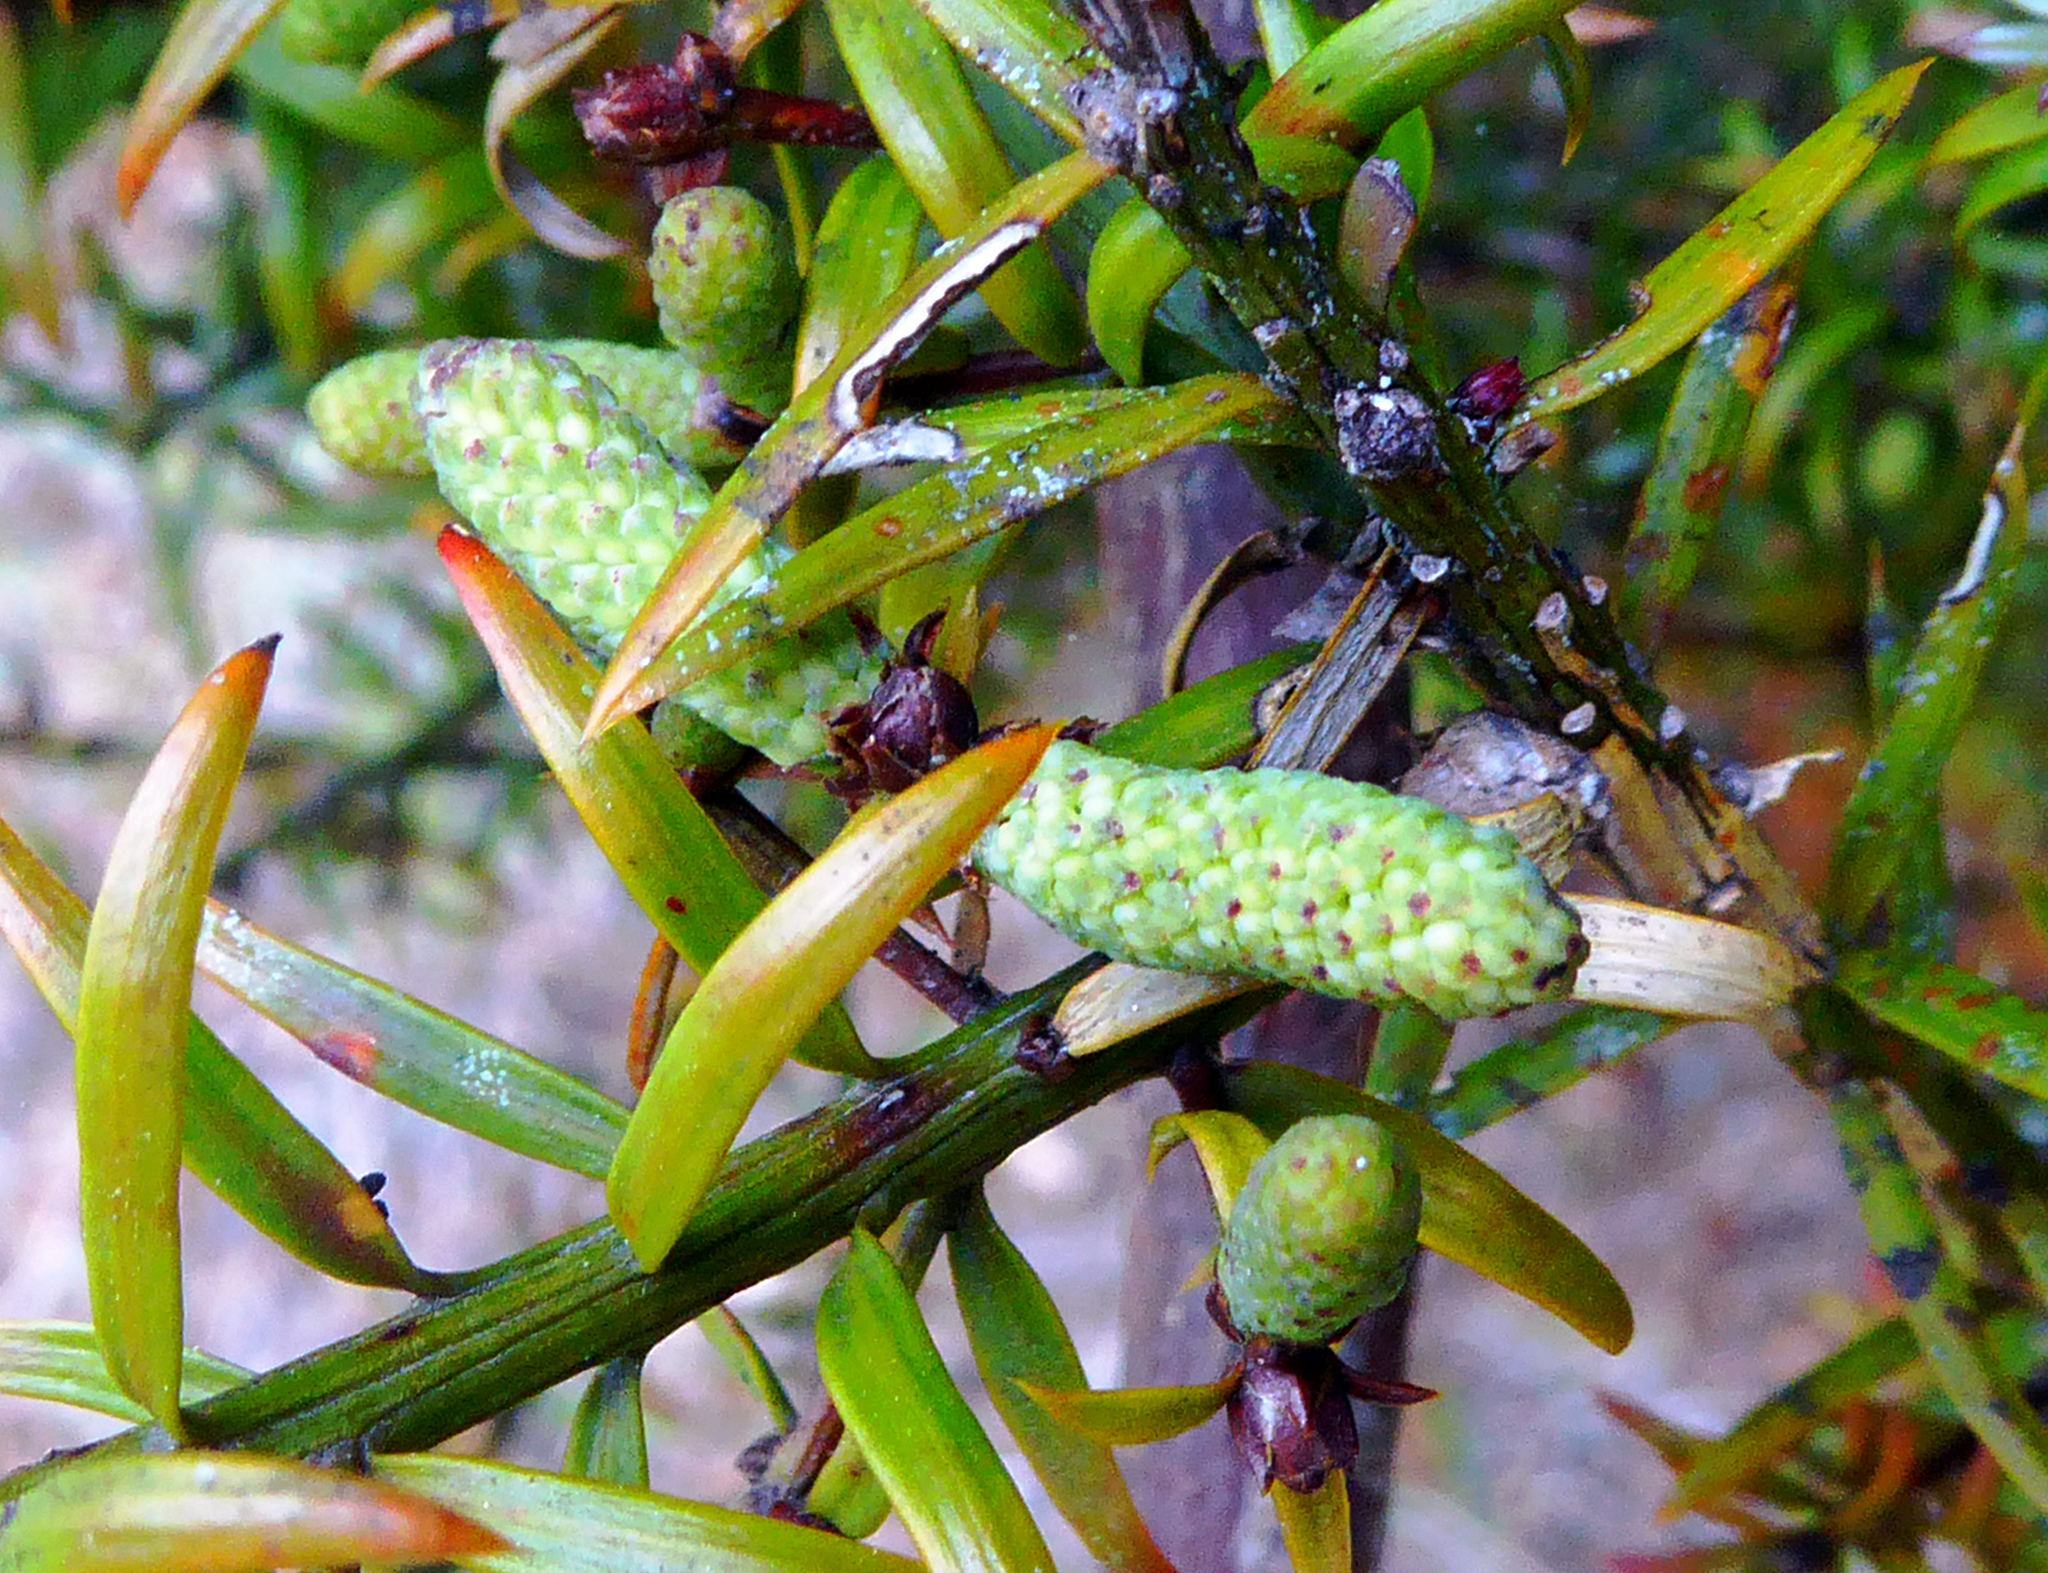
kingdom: Plantae
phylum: Tracheophyta
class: Pinopsida
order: Pinales
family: Podocarpaceae
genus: Podocarpus
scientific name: Podocarpus acutifolius
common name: Needle-leaved totara
